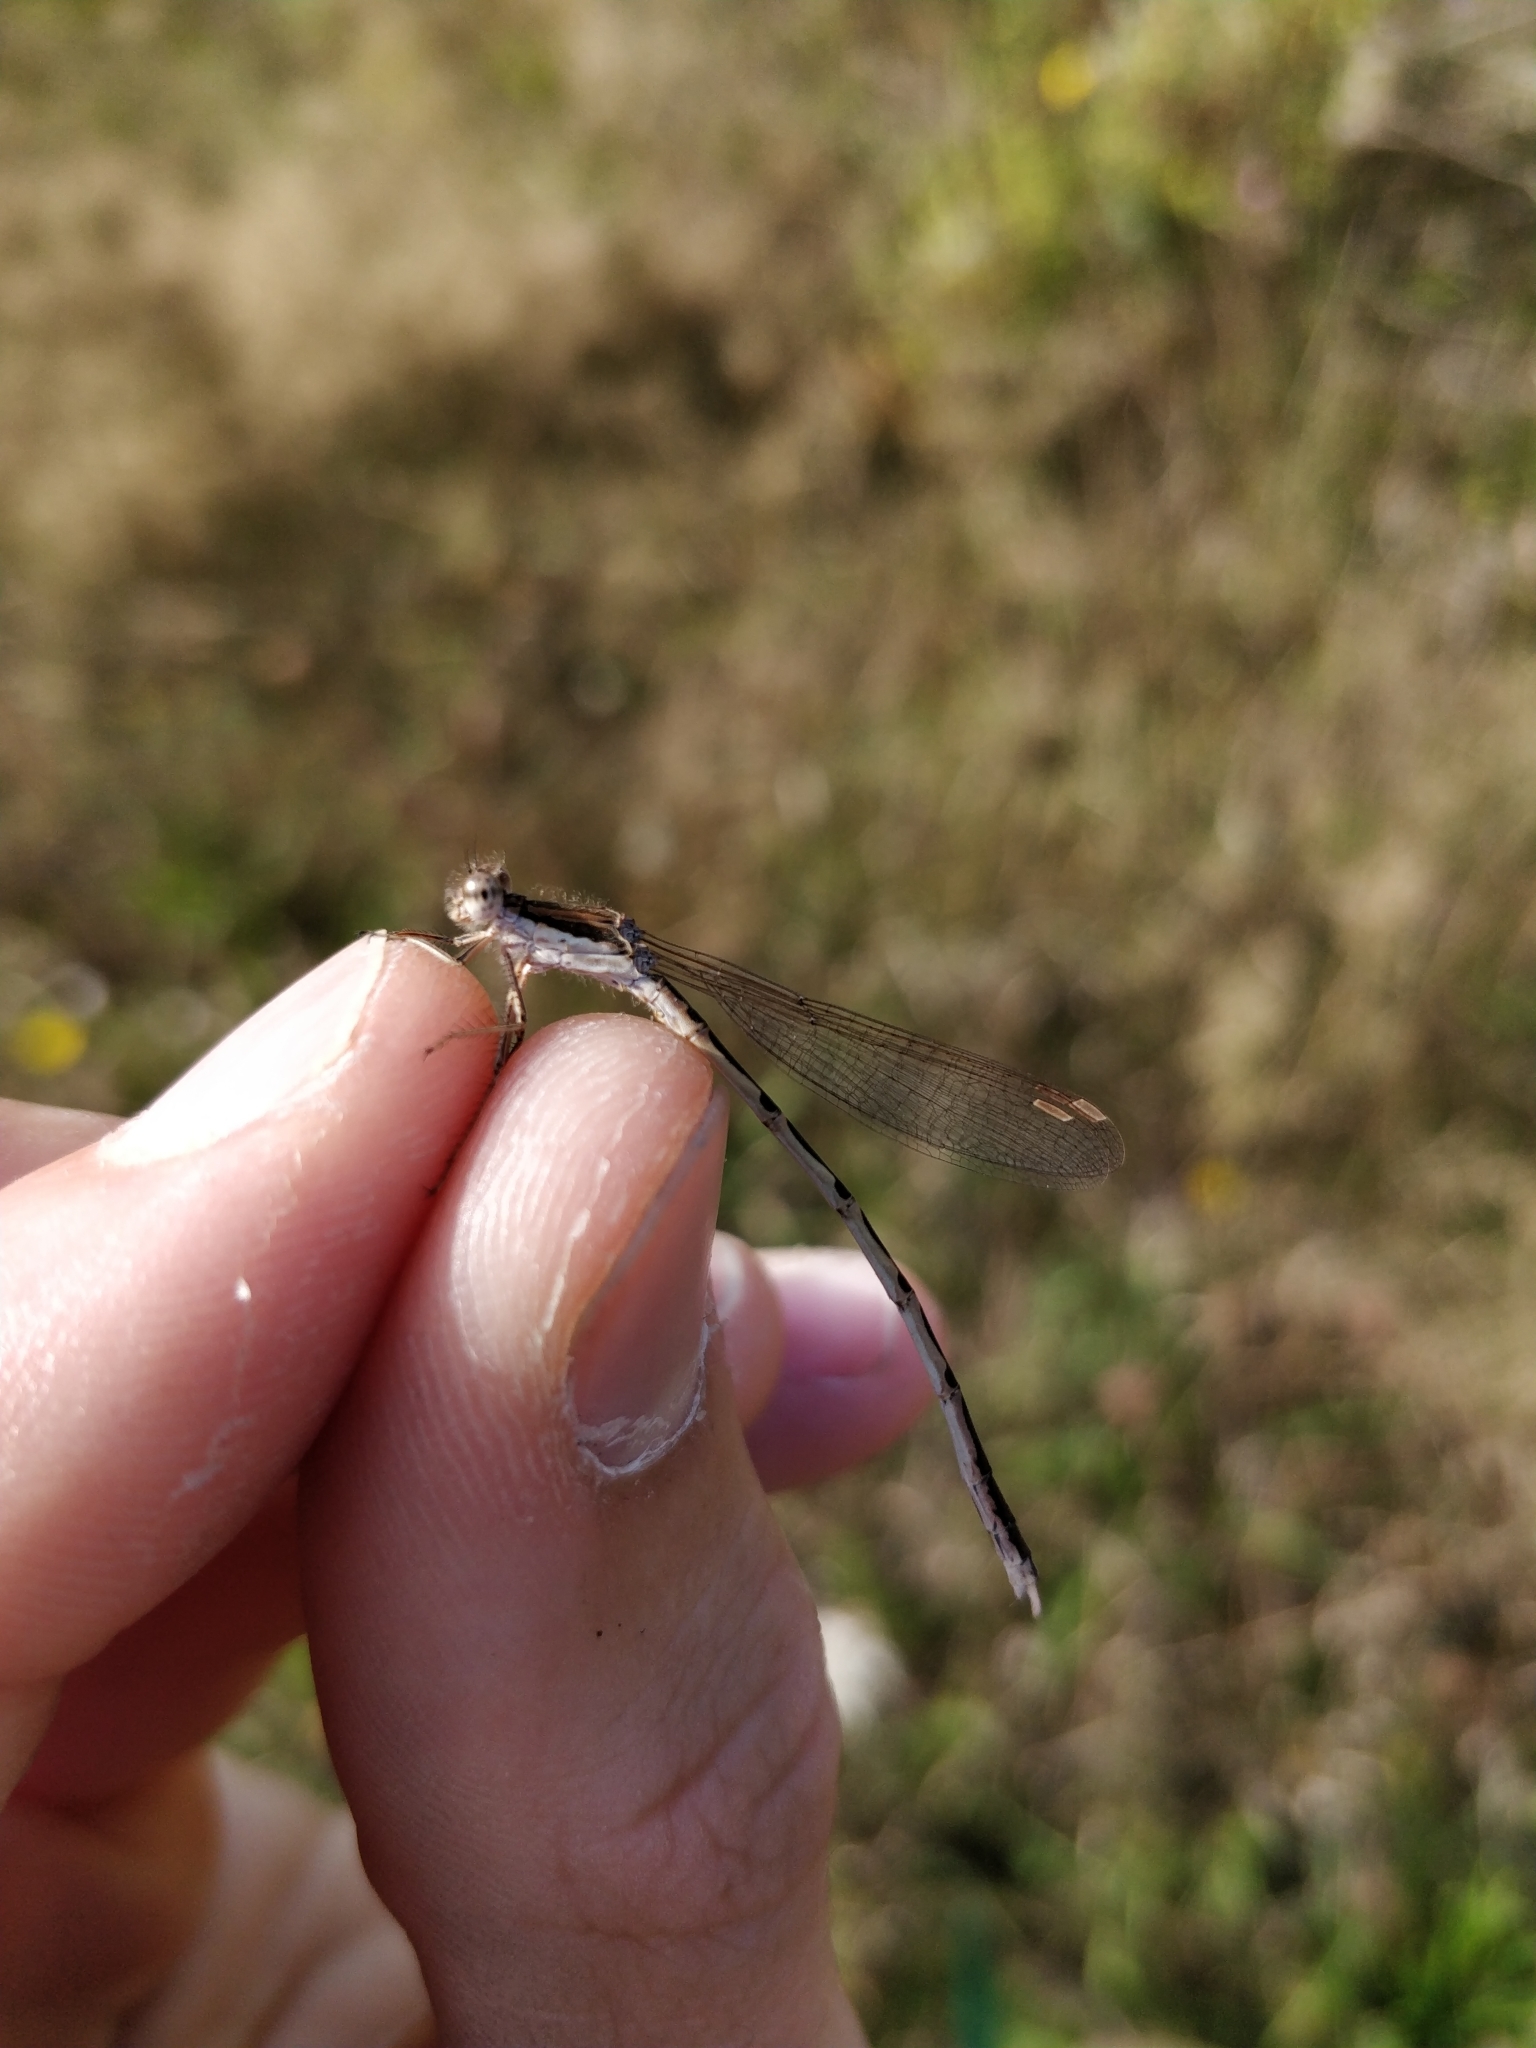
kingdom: Animalia
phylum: Arthropoda
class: Insecta
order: Odonata
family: Lestidae
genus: Sympecma
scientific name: Sympecma fusca
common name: Common winter damsel
